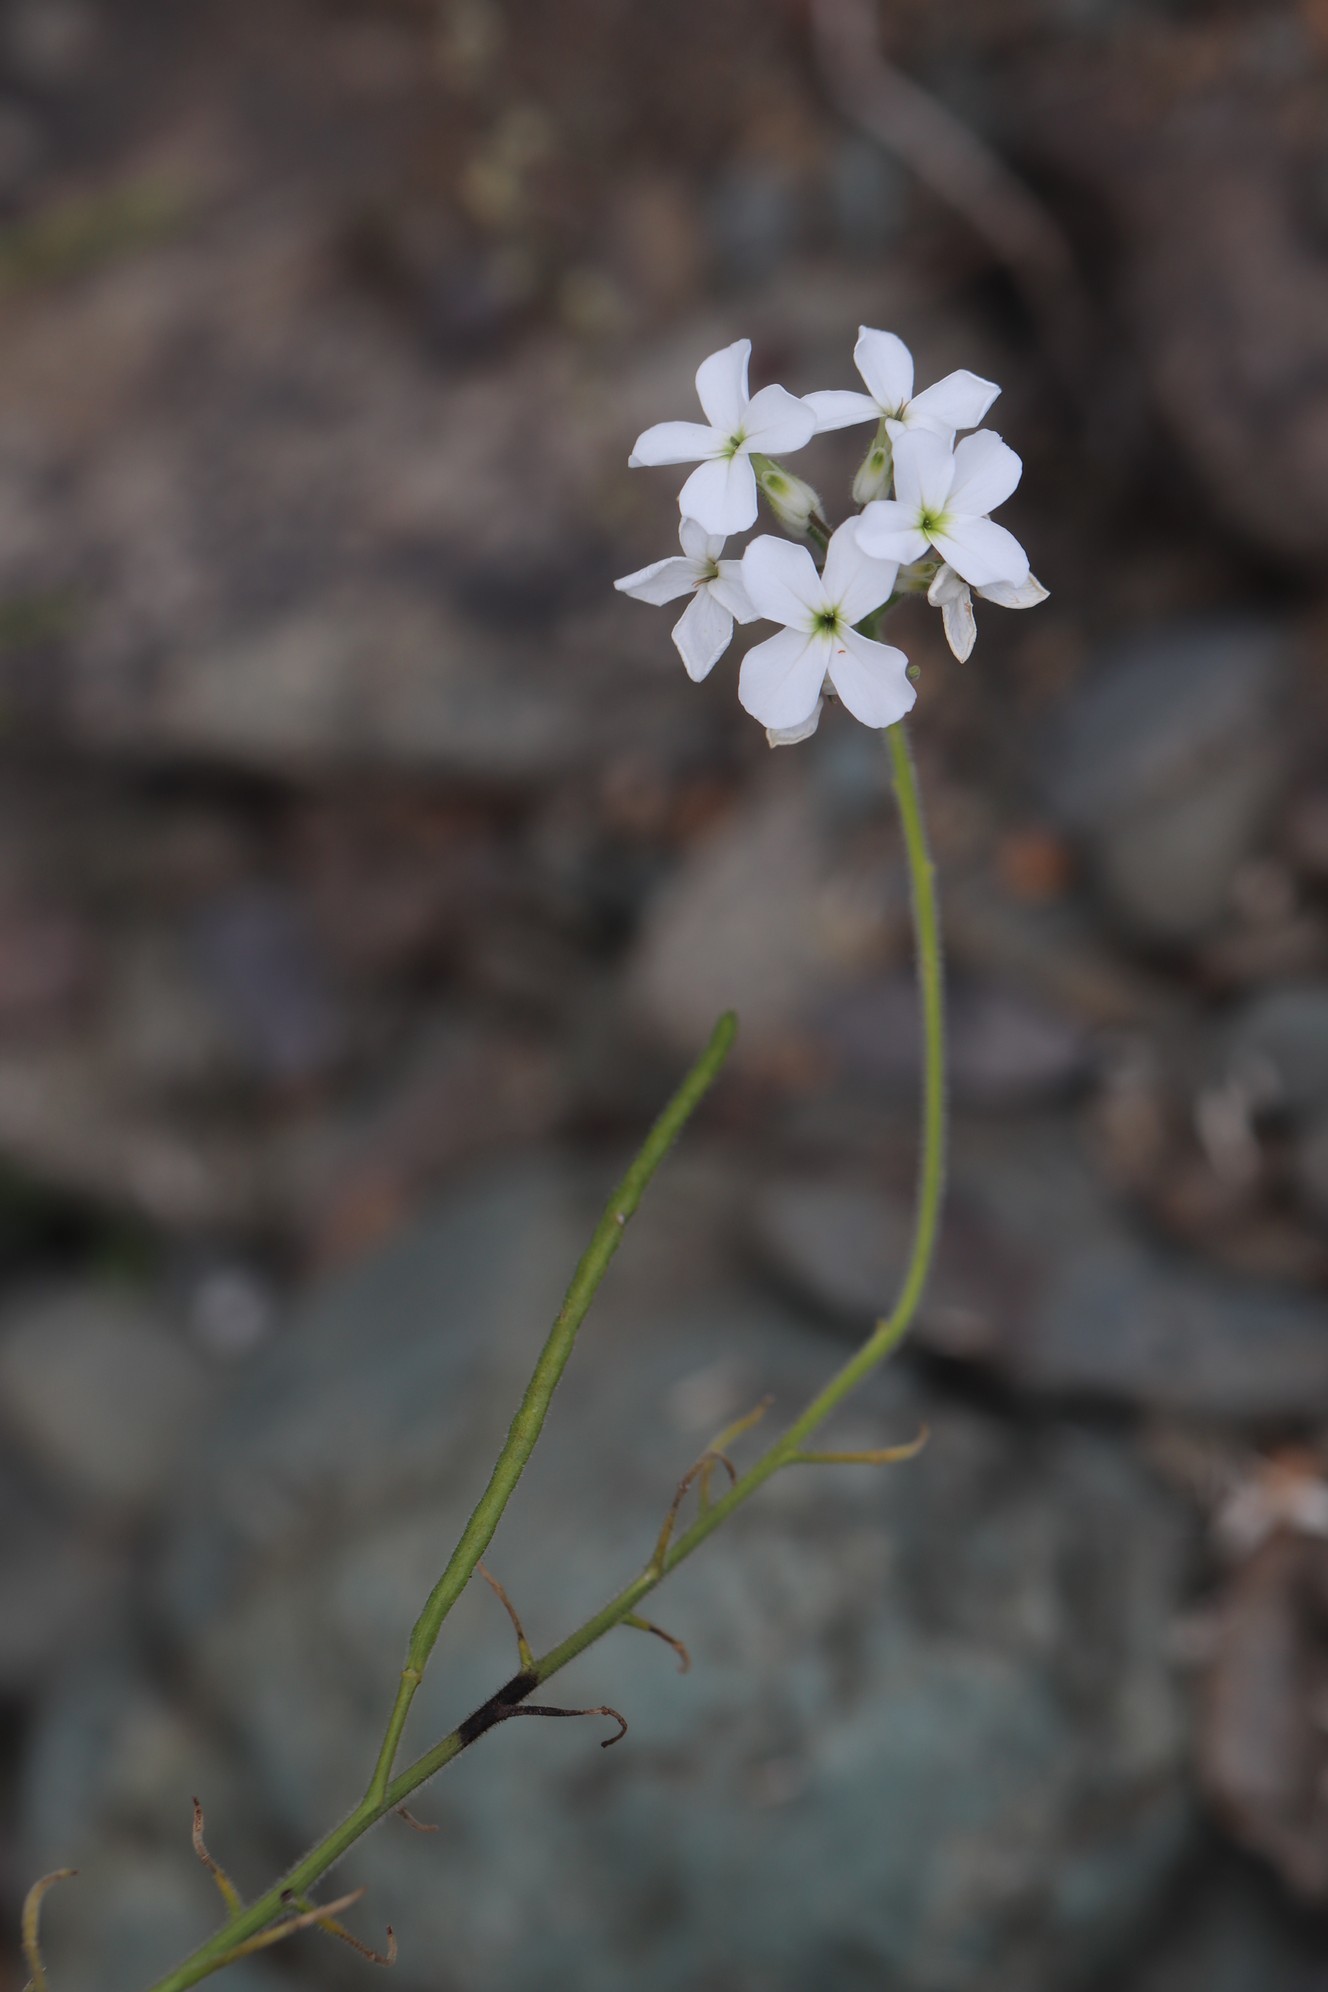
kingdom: Plantae
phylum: Tracheophyta
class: Magnoliopsida
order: Brassicales
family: Brassicaceae
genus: Hesperis
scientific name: Hesperis sibirica
